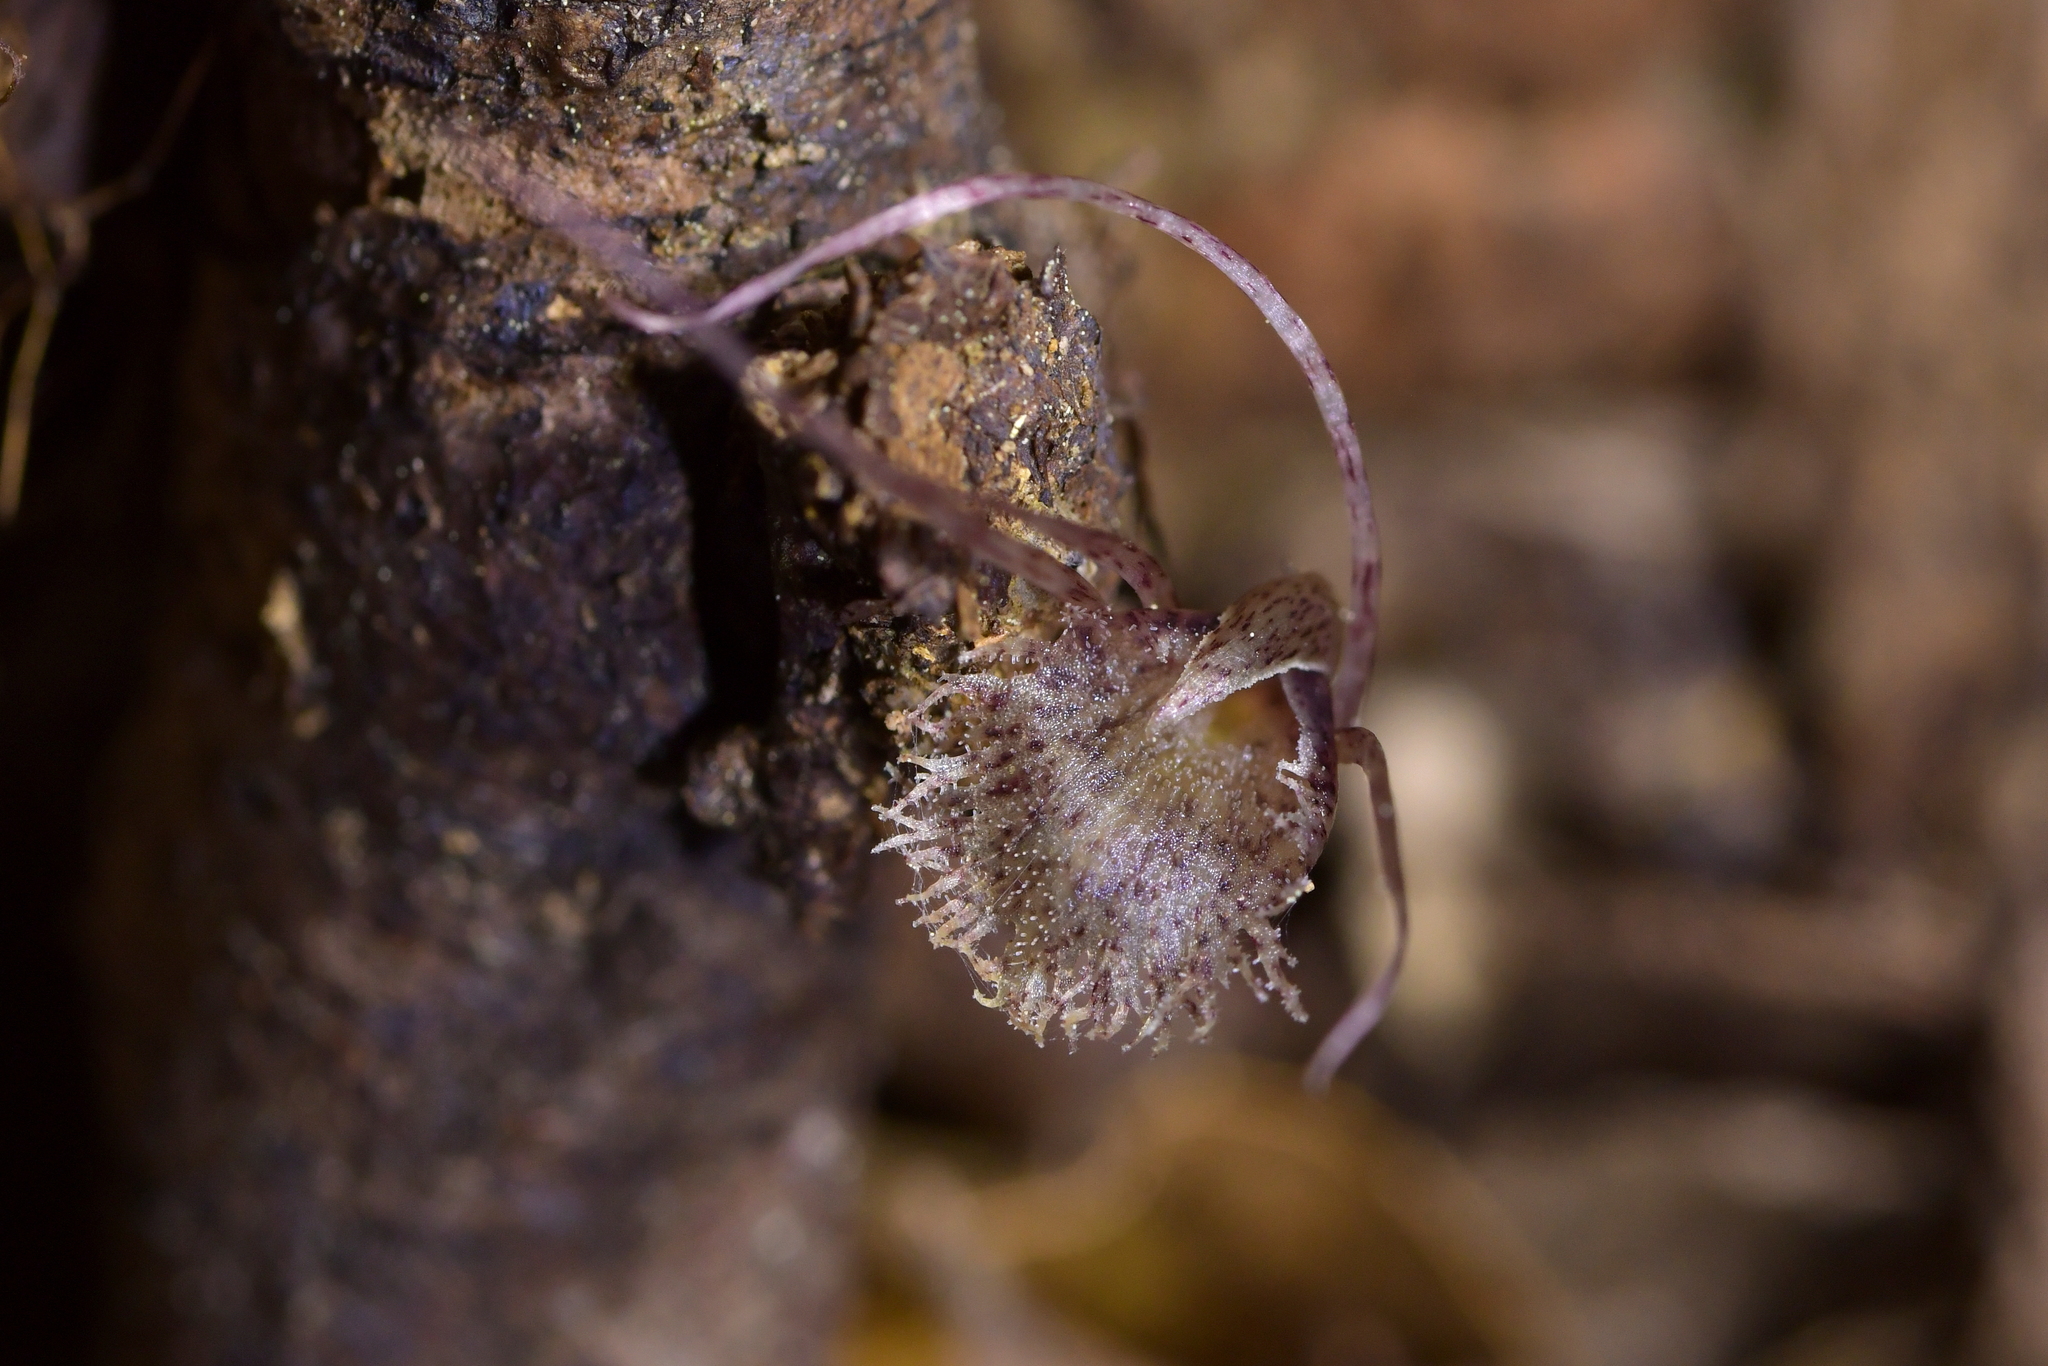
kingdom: Plantae
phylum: Tracheophyta
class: Liliopsida
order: Asparagales
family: Orchidaceae
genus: Corybas
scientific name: Corybas cryptanthus
